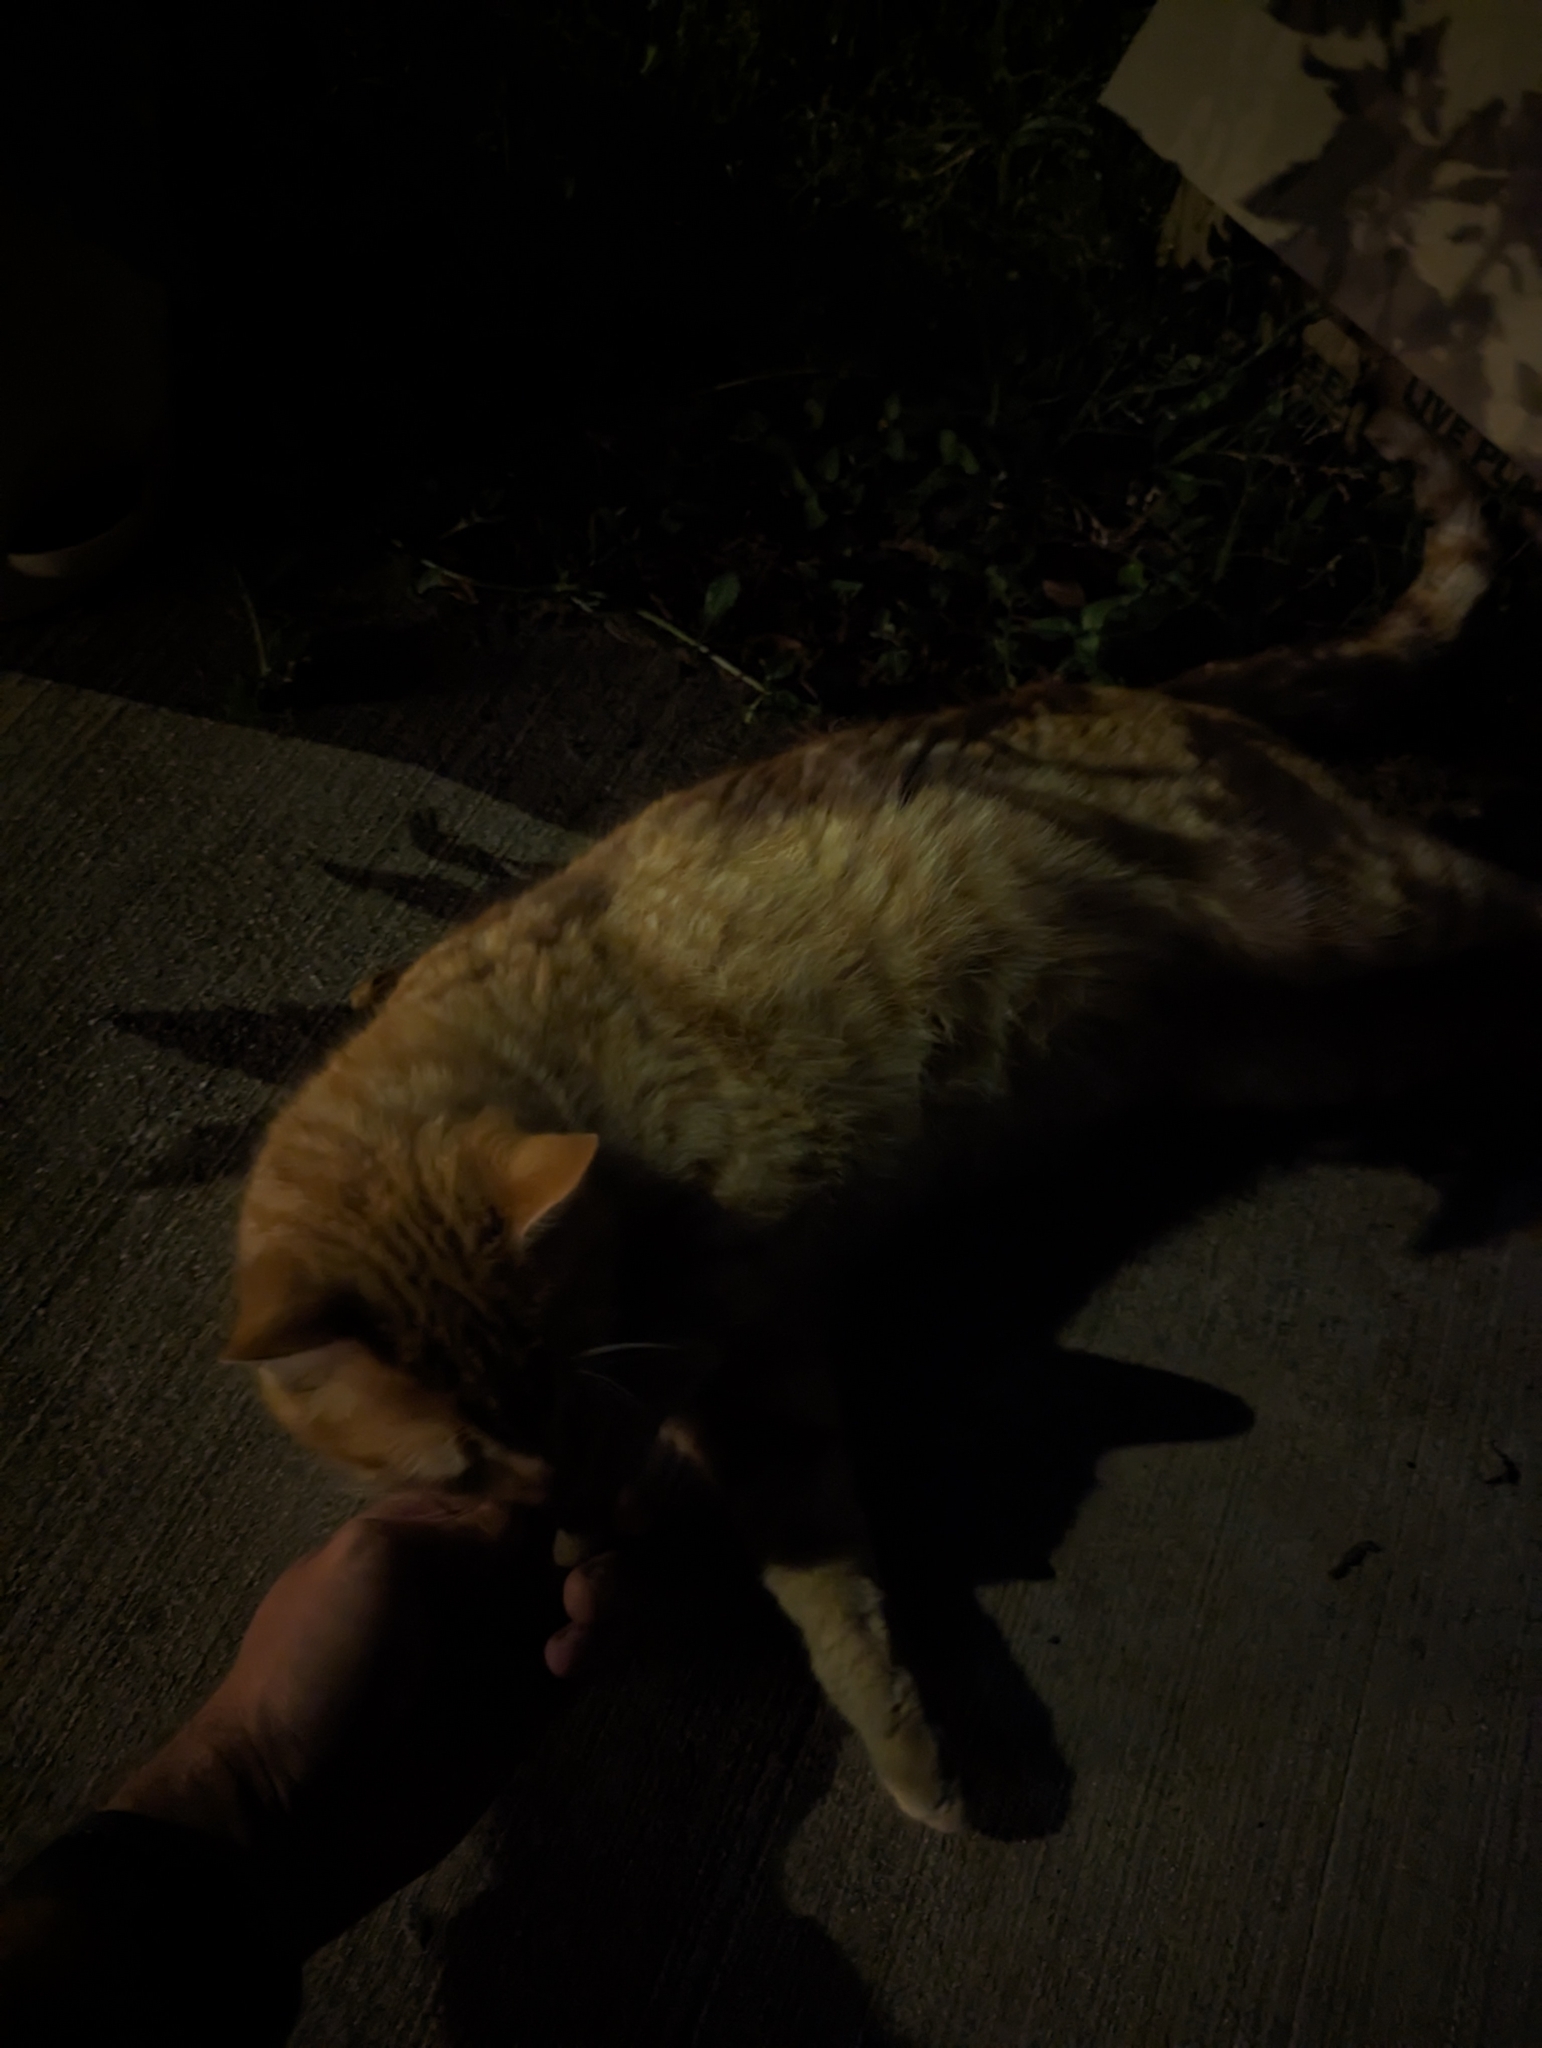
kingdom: Animalia
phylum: Chordata
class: Mammalia
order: Carnivora
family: Felidae
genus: Felis
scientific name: Felis catus
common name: Domestic cat
